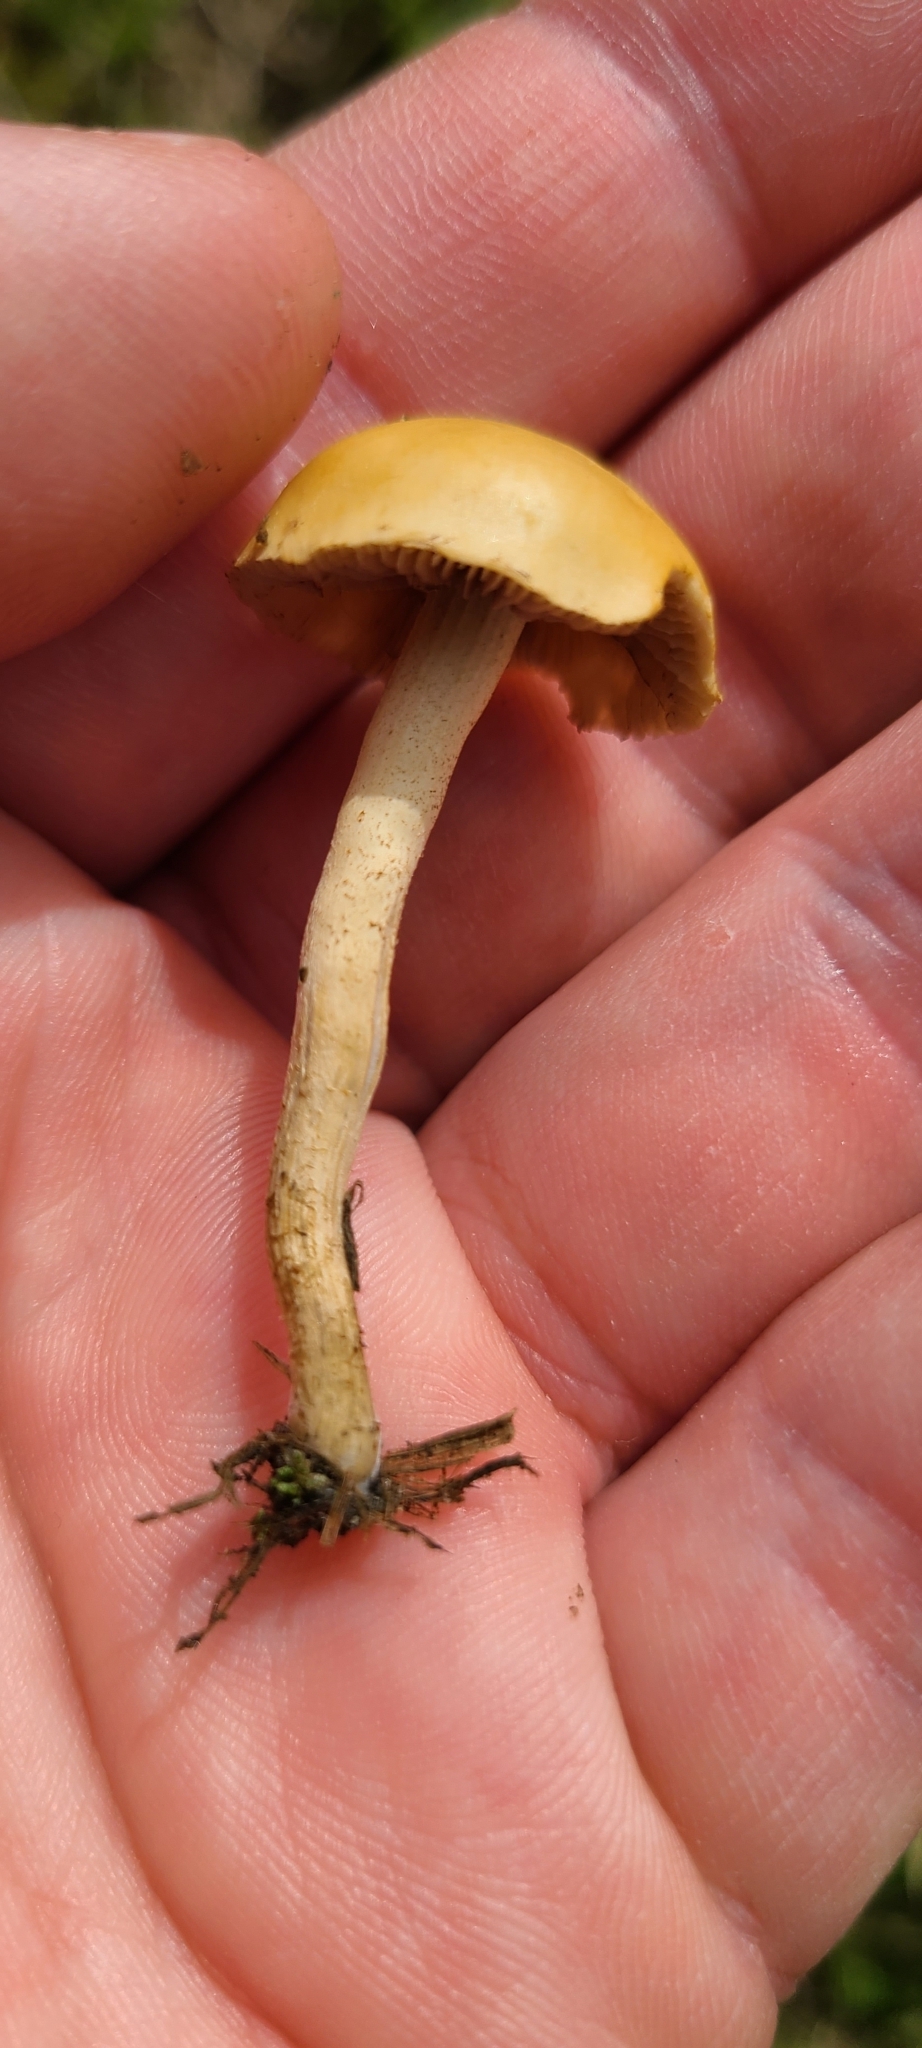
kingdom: Fungi
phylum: Basidiomycota
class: Agaricomycetes
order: Agaricales
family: Strophariaceae
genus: Agrocybe
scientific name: Agrocybe pediades
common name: Common fieldcap
